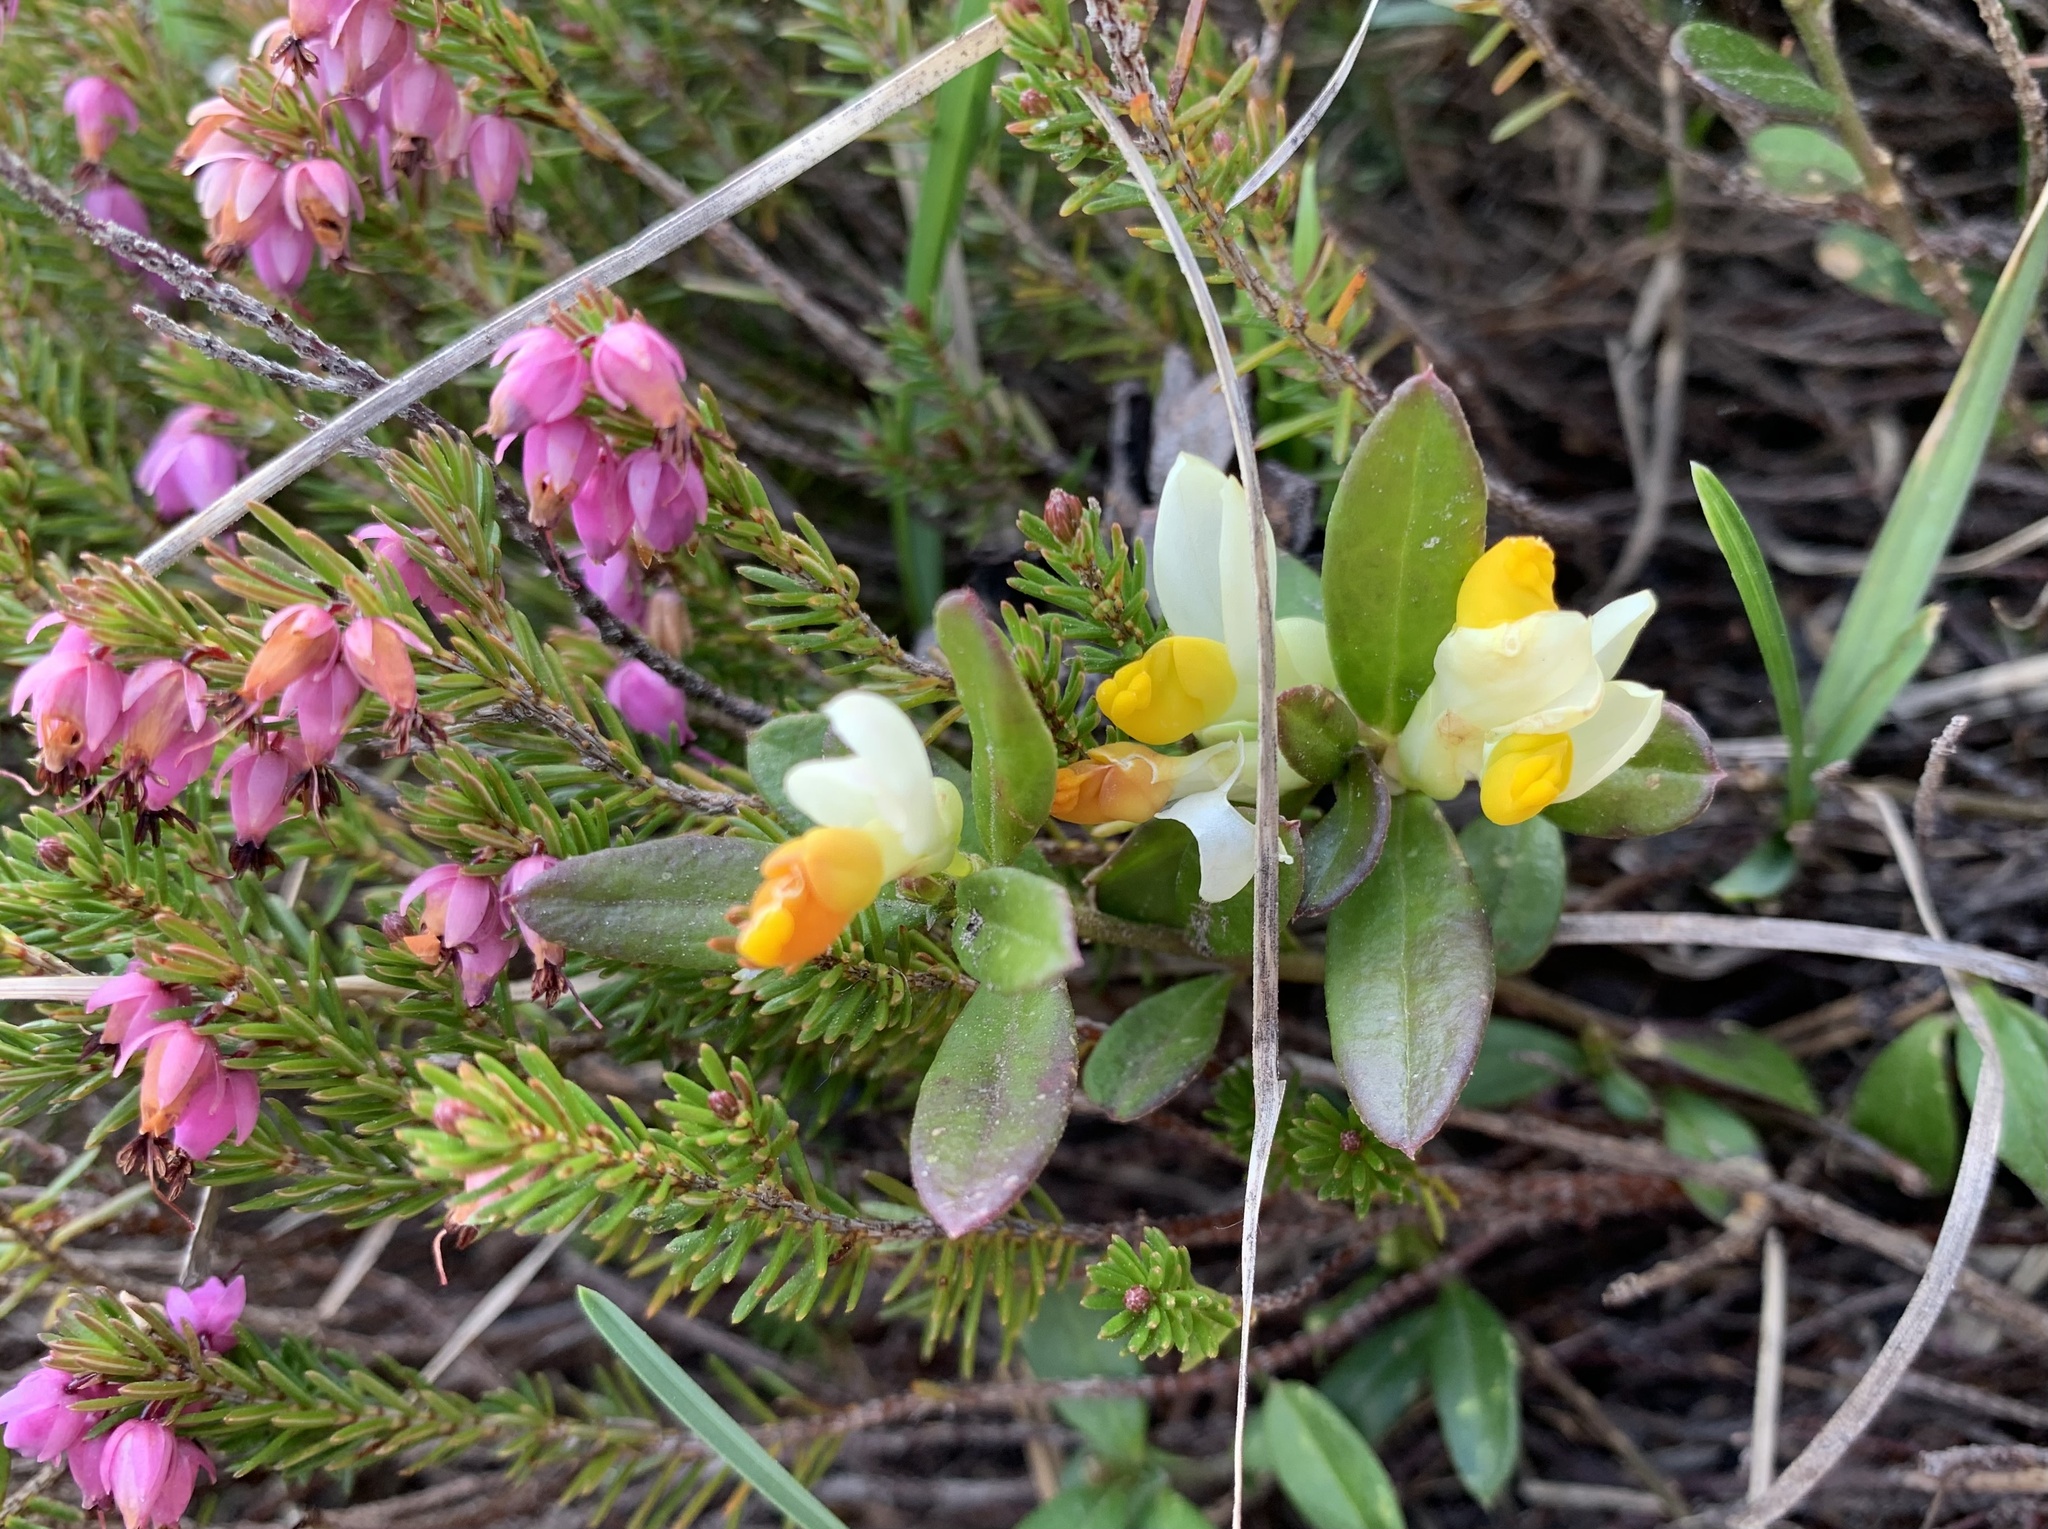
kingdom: Plantae
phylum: Tracheophyta
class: Magnoliopsida
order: Fabales
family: Polygalaceae
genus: Polygaloides
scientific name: Polygaloides chamaebuxus
